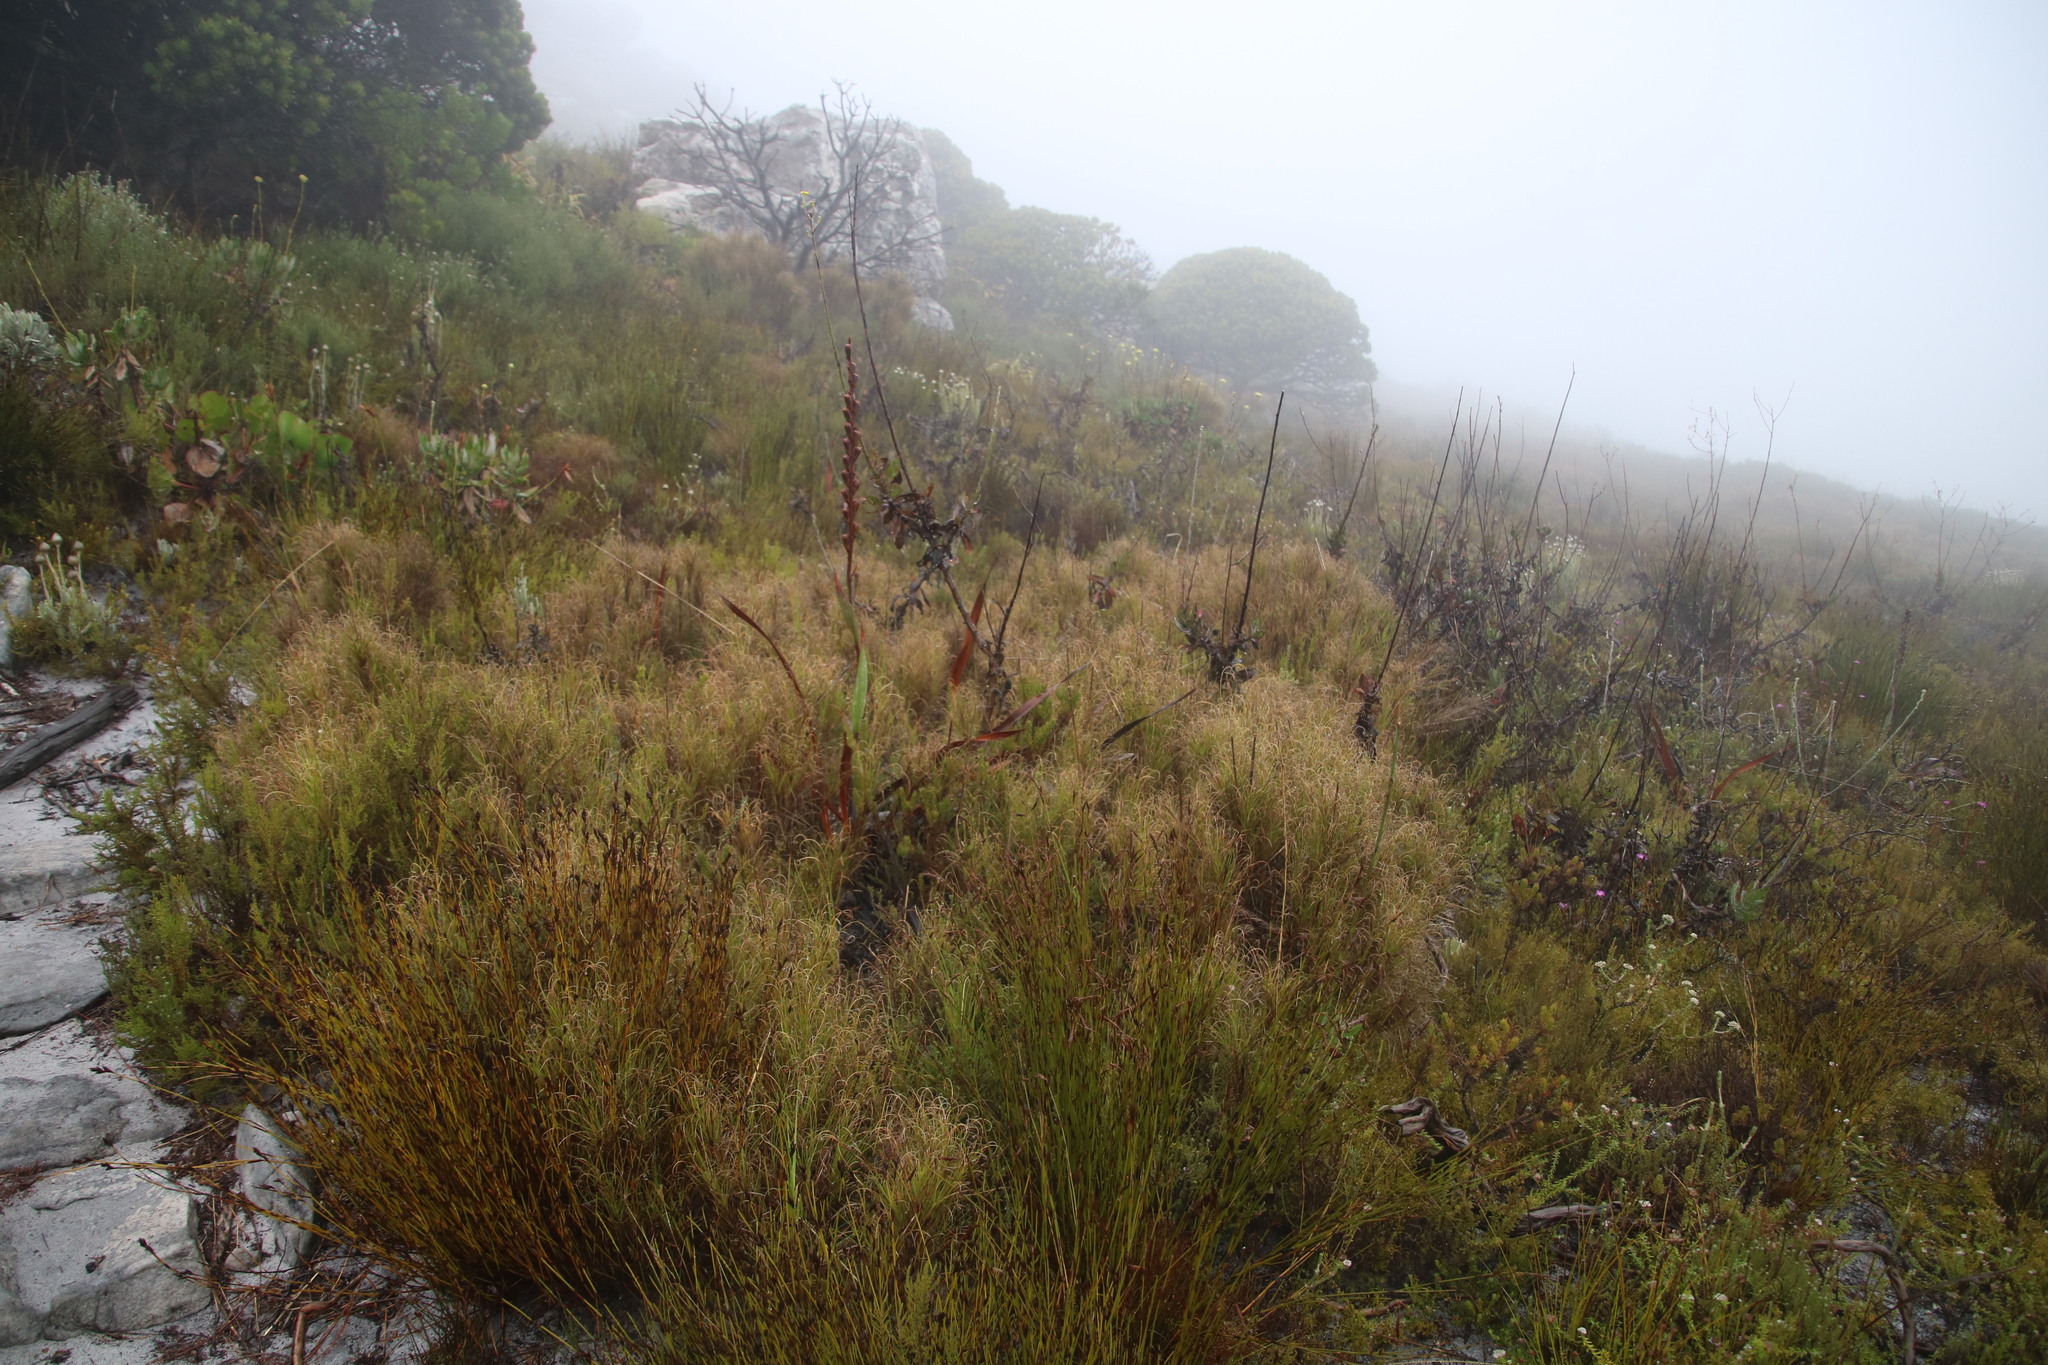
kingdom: Plantae
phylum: Tracheophyta
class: Liliopsida
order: Poales
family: Poaceae
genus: Pseudopentameris
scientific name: Pseudopentameris macrantha
